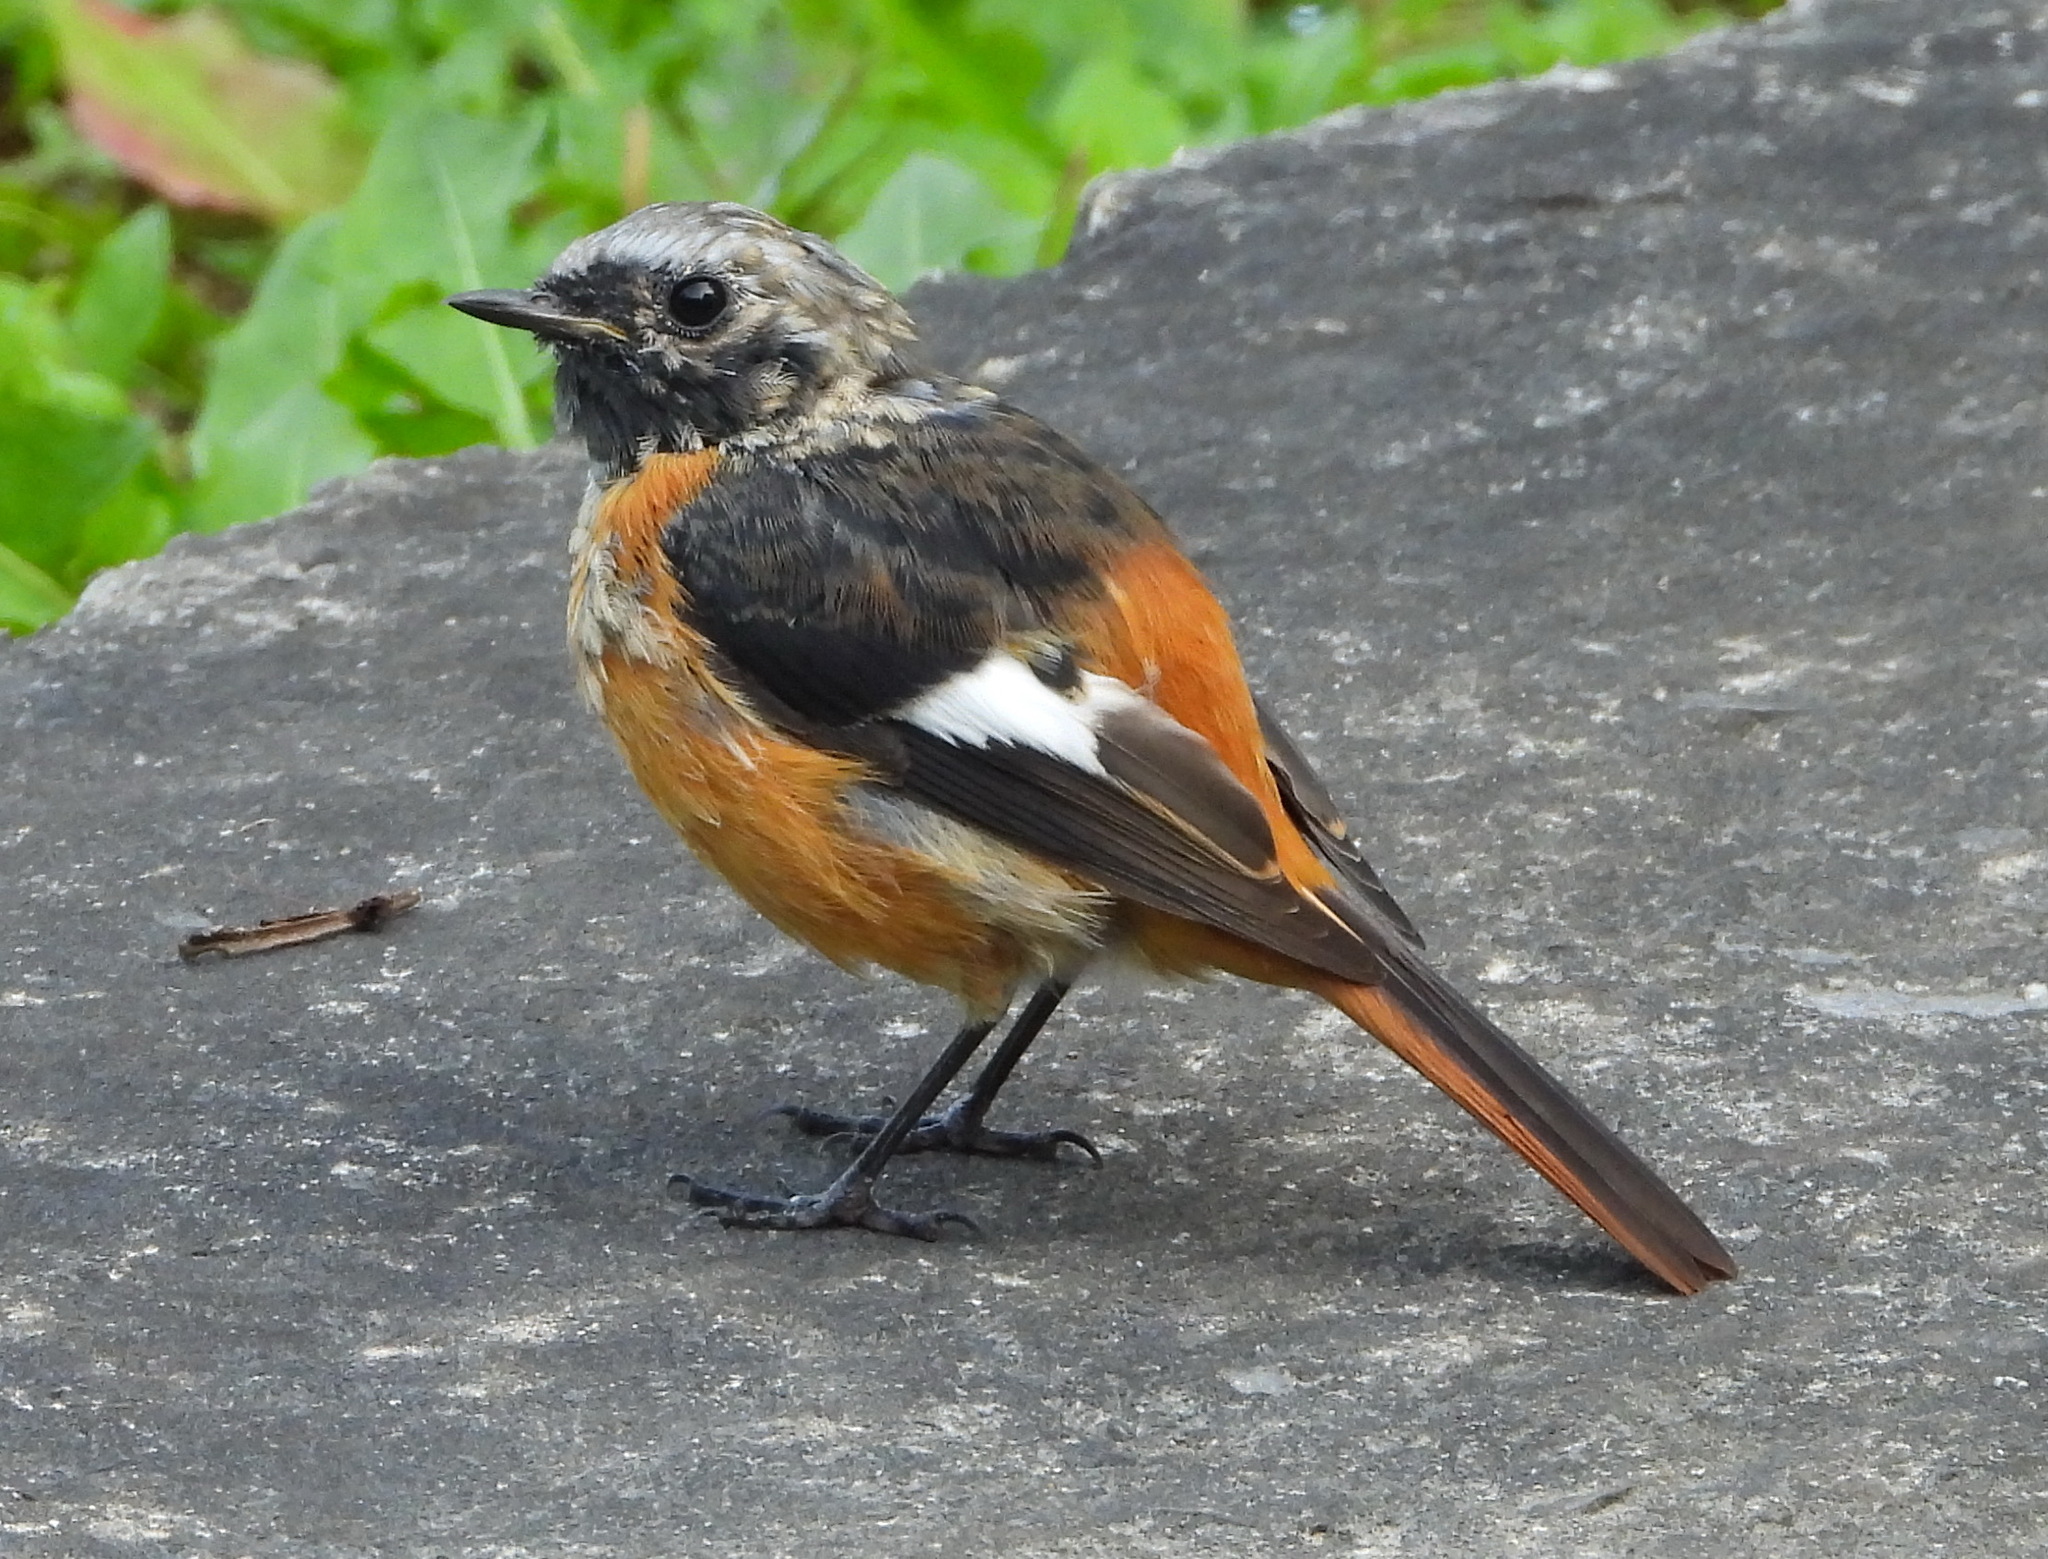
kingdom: Animalia
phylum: Chordata
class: Aves
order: Passeriformes
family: Muscicapidae
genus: Phoenicurus
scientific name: Phoenicurus auroreus
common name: Daurian redstart
